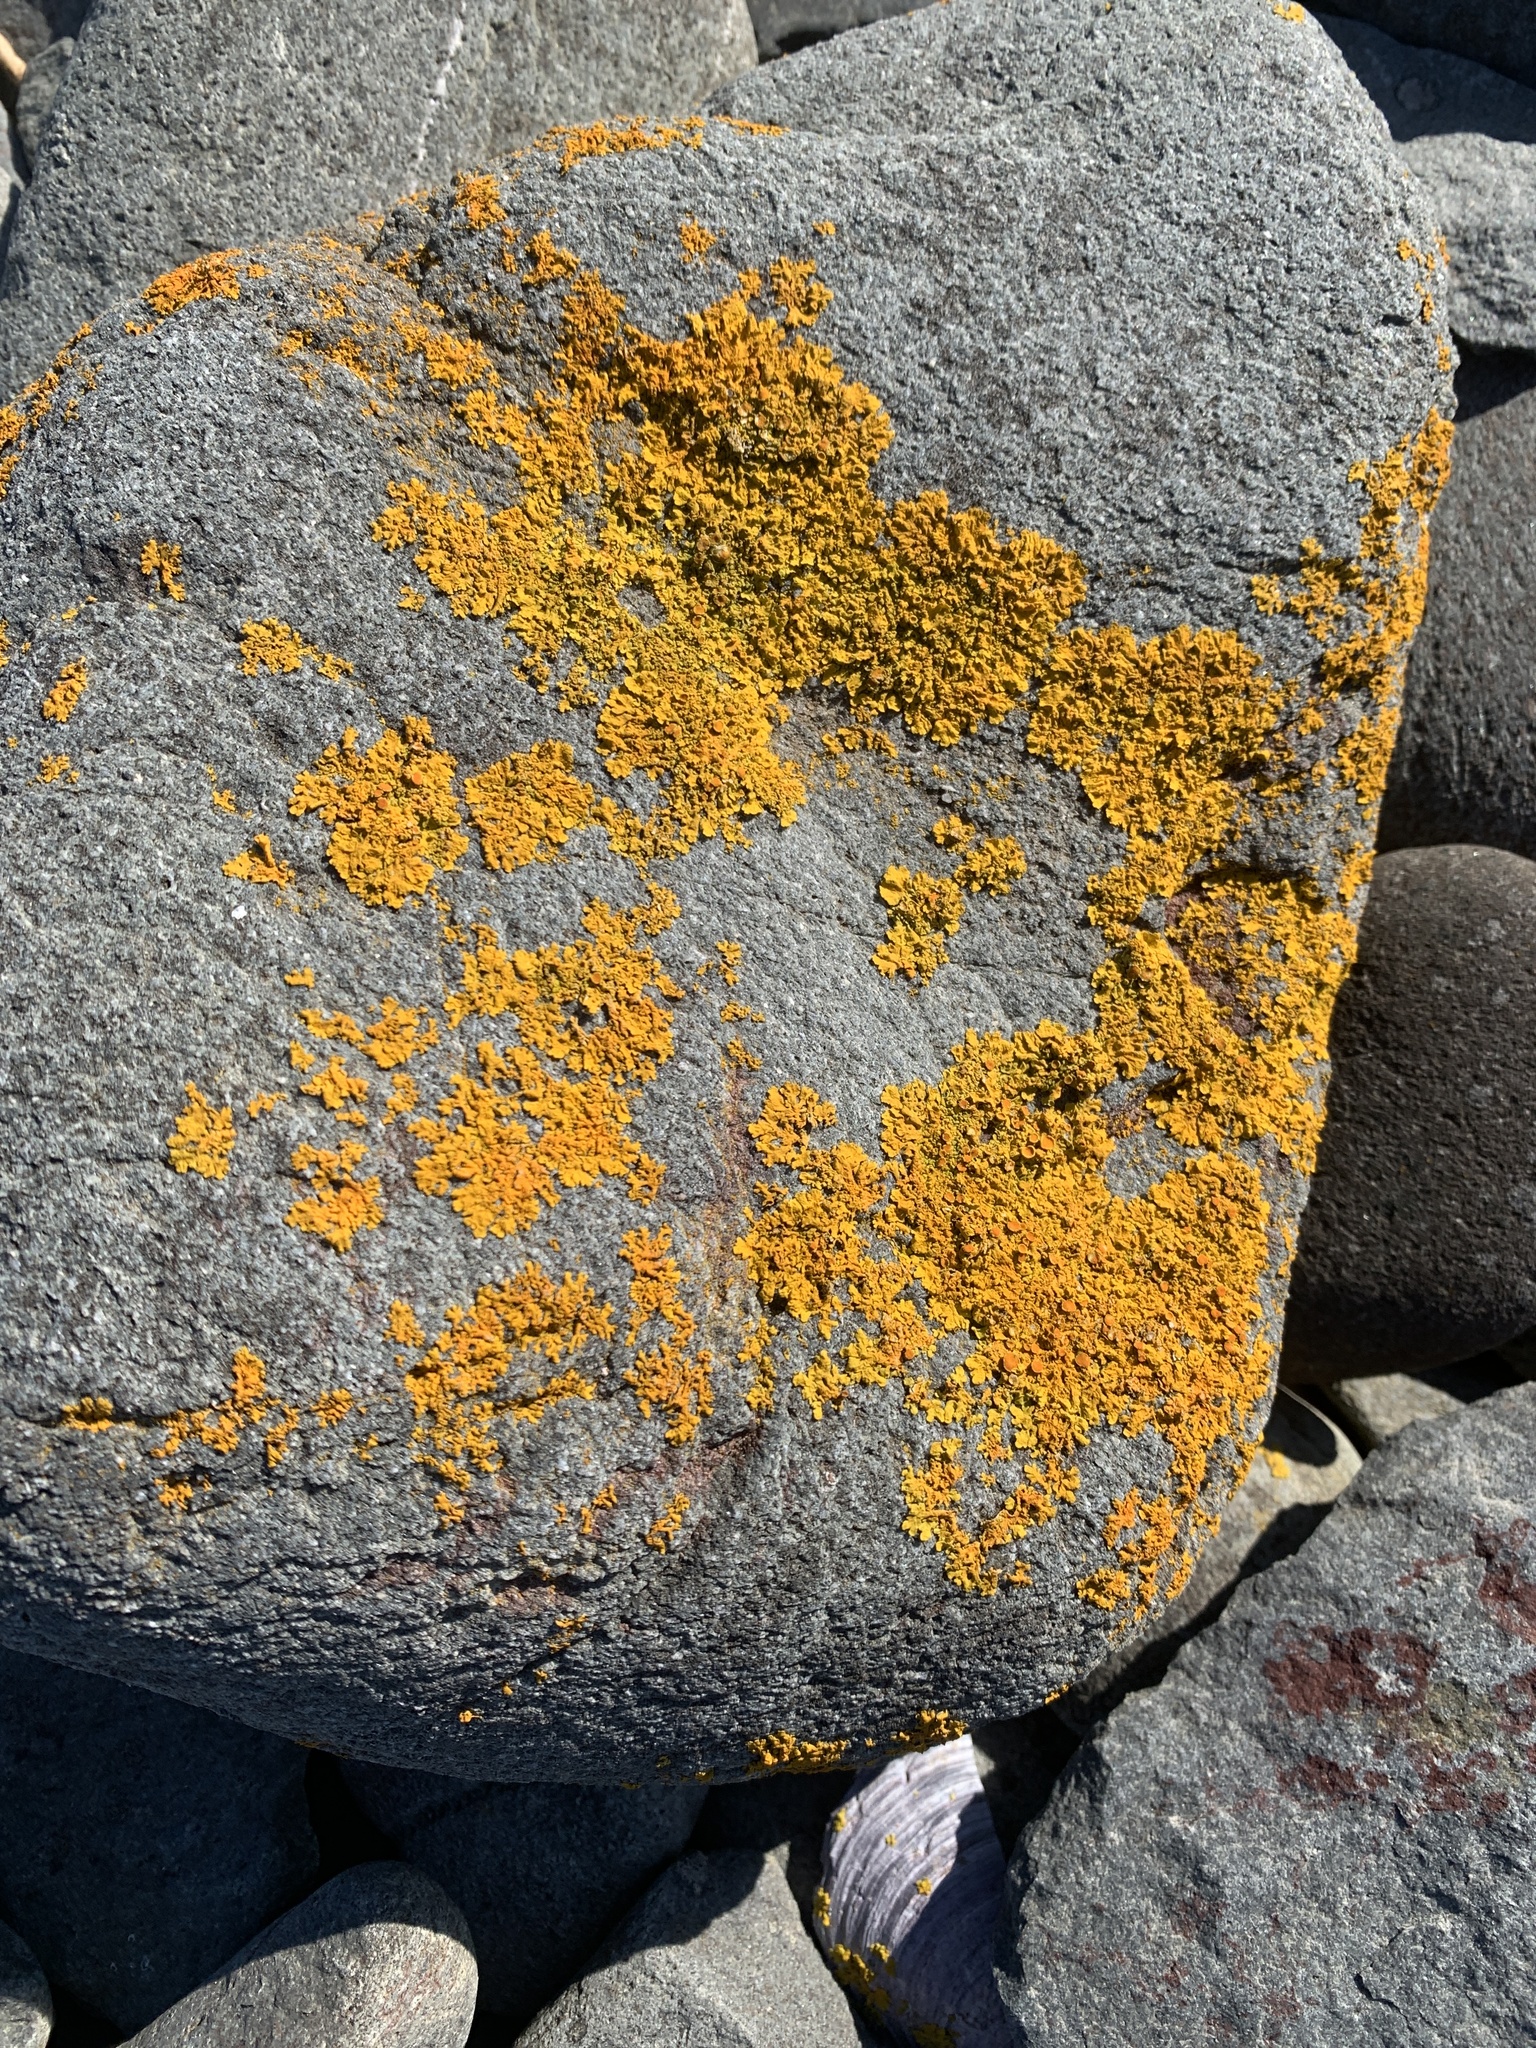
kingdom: Fungi
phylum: Ascomycota
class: Lecanoromycetes
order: Teloschistales
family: Teloschistaceae
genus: Xanthoria
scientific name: Xanthoria parietina
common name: Common orange lichen
